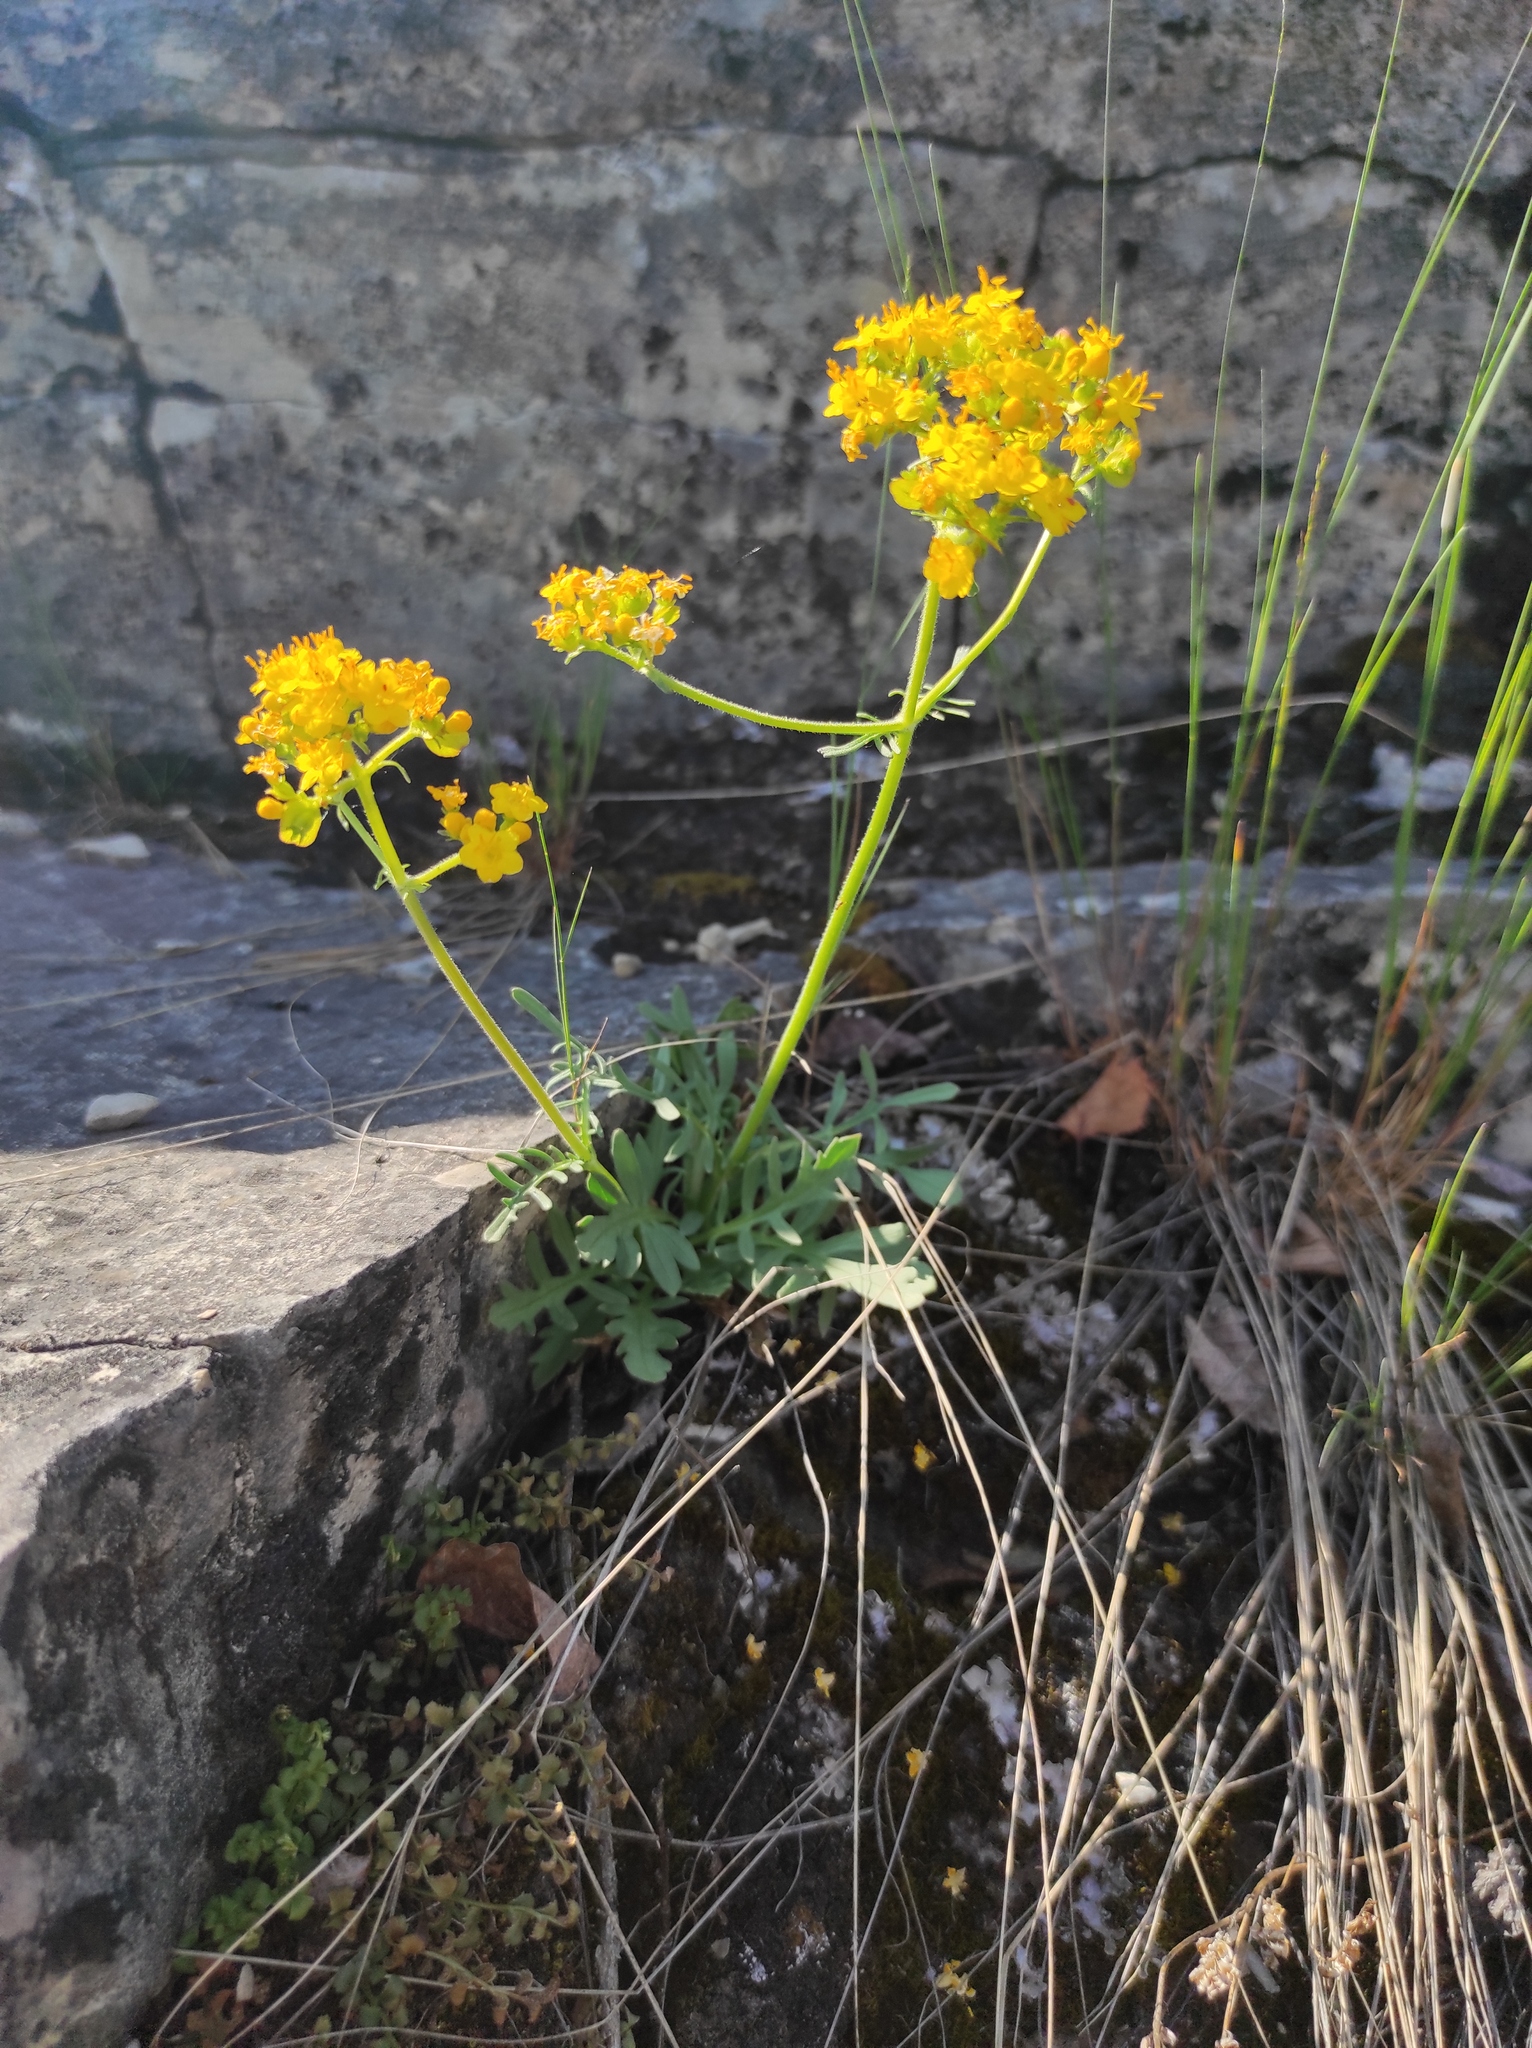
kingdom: Plantae
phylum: Tracheophyta
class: Magnoliopsida
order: Dipsacales
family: Caprifoliaceae
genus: Patrinia
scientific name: Patrinia rupestris
